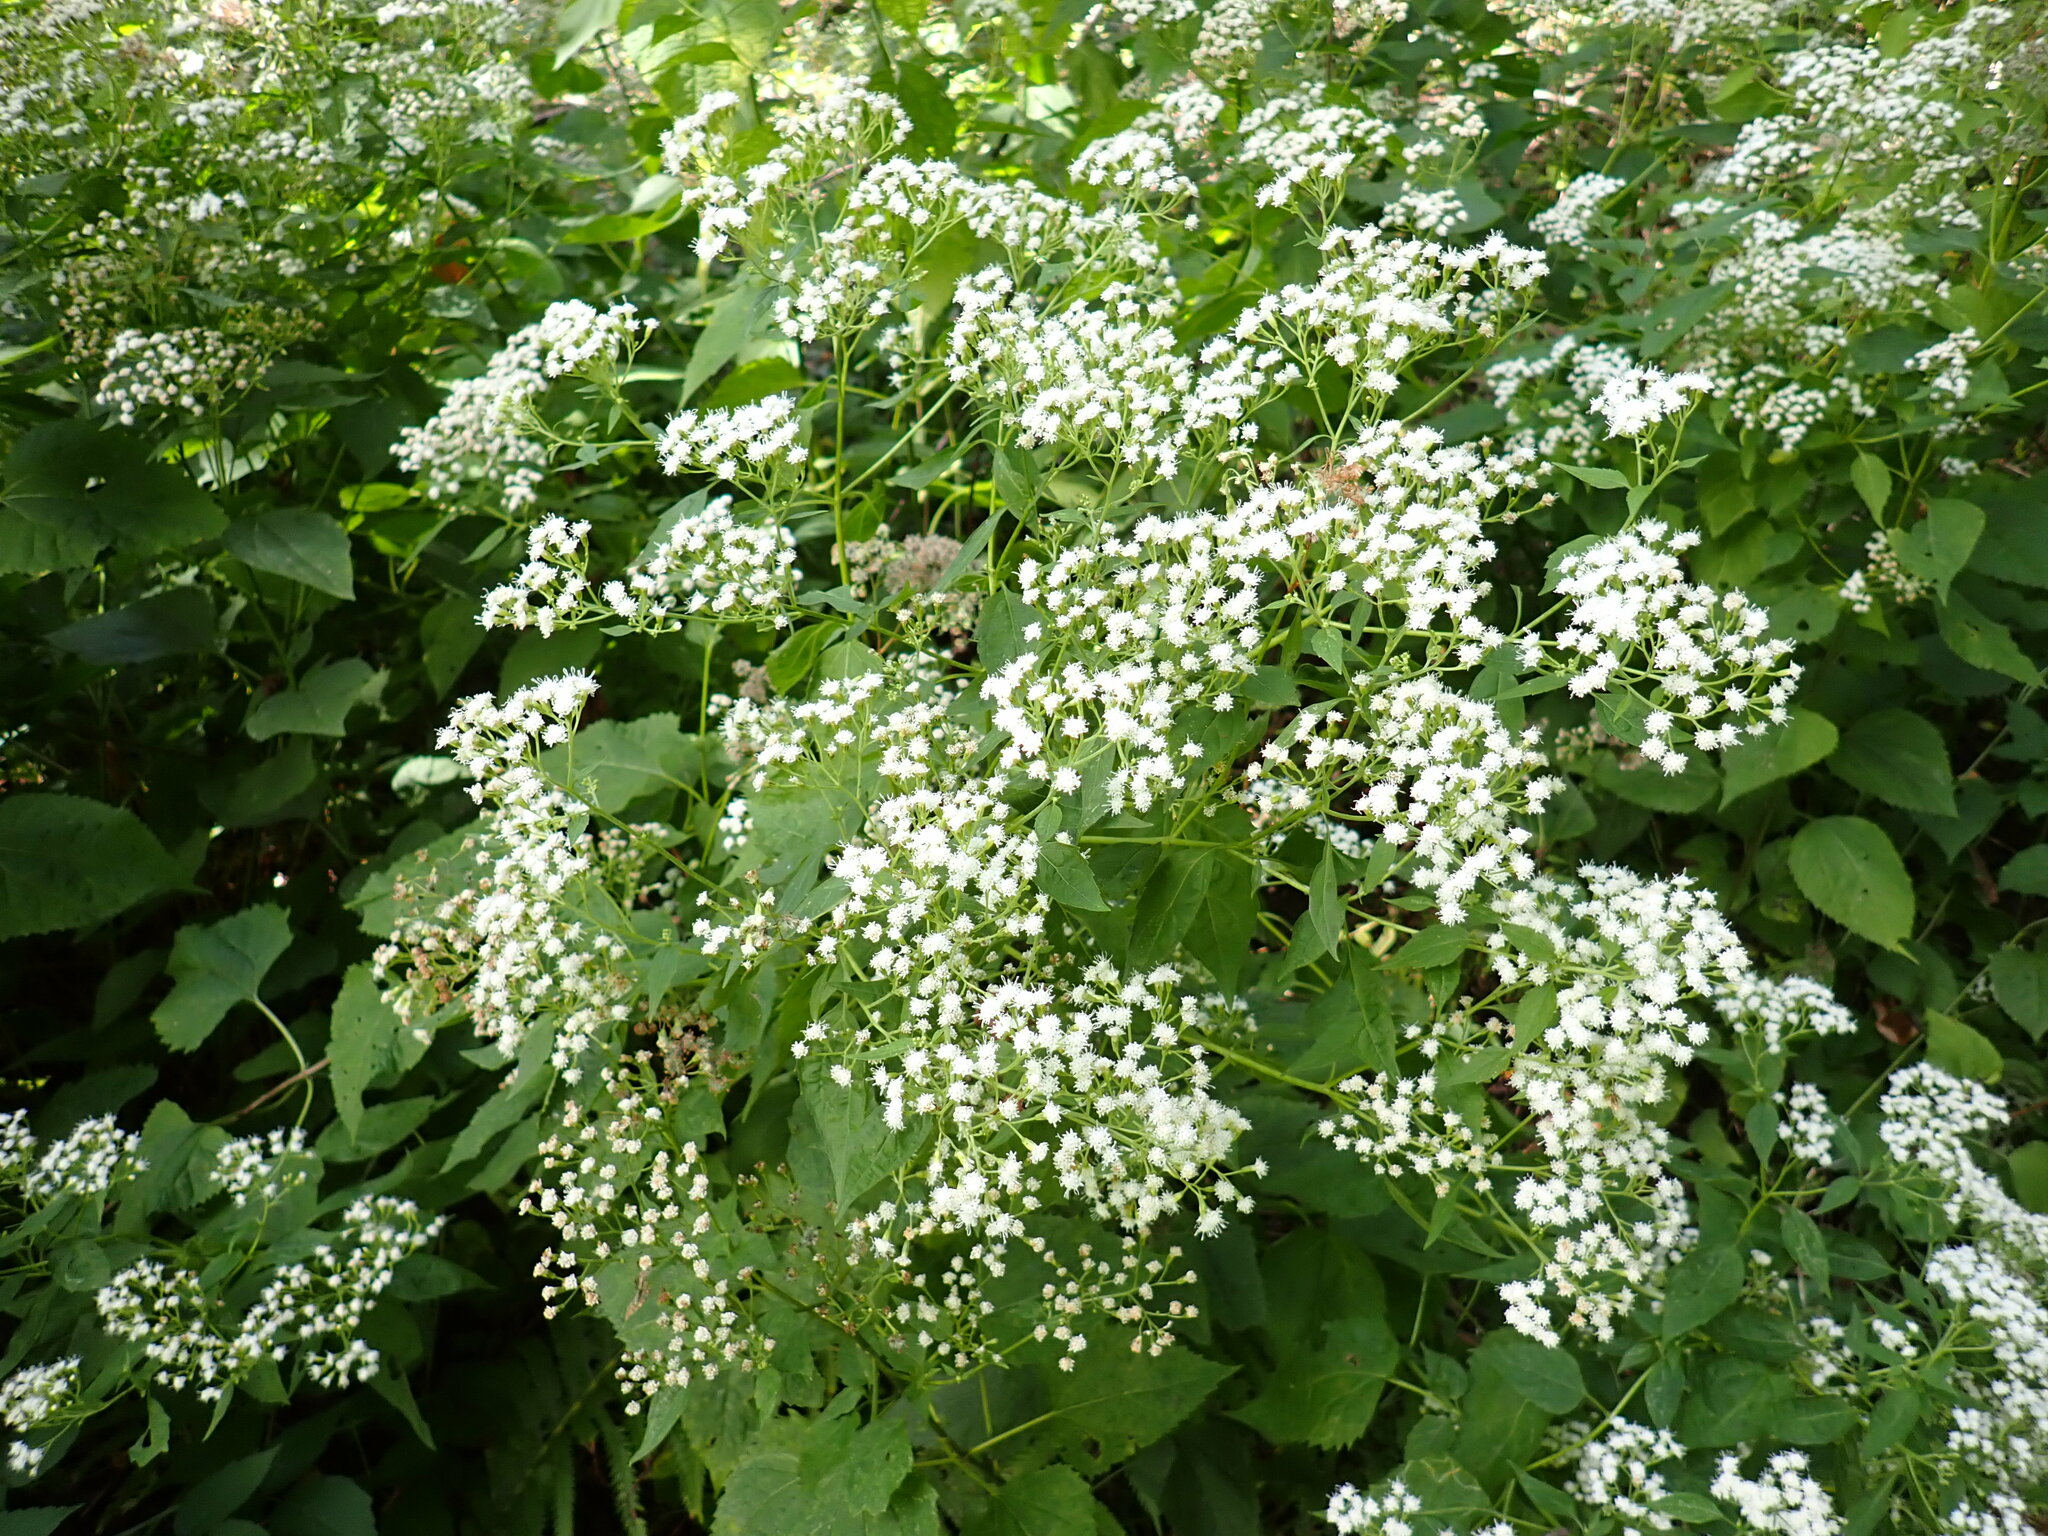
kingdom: Plantae
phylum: Tracheophyta
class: Magnoliopsida
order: Asterales
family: Asteraceae
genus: Ageratina
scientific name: Ageratina altissima
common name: White snakeroot
